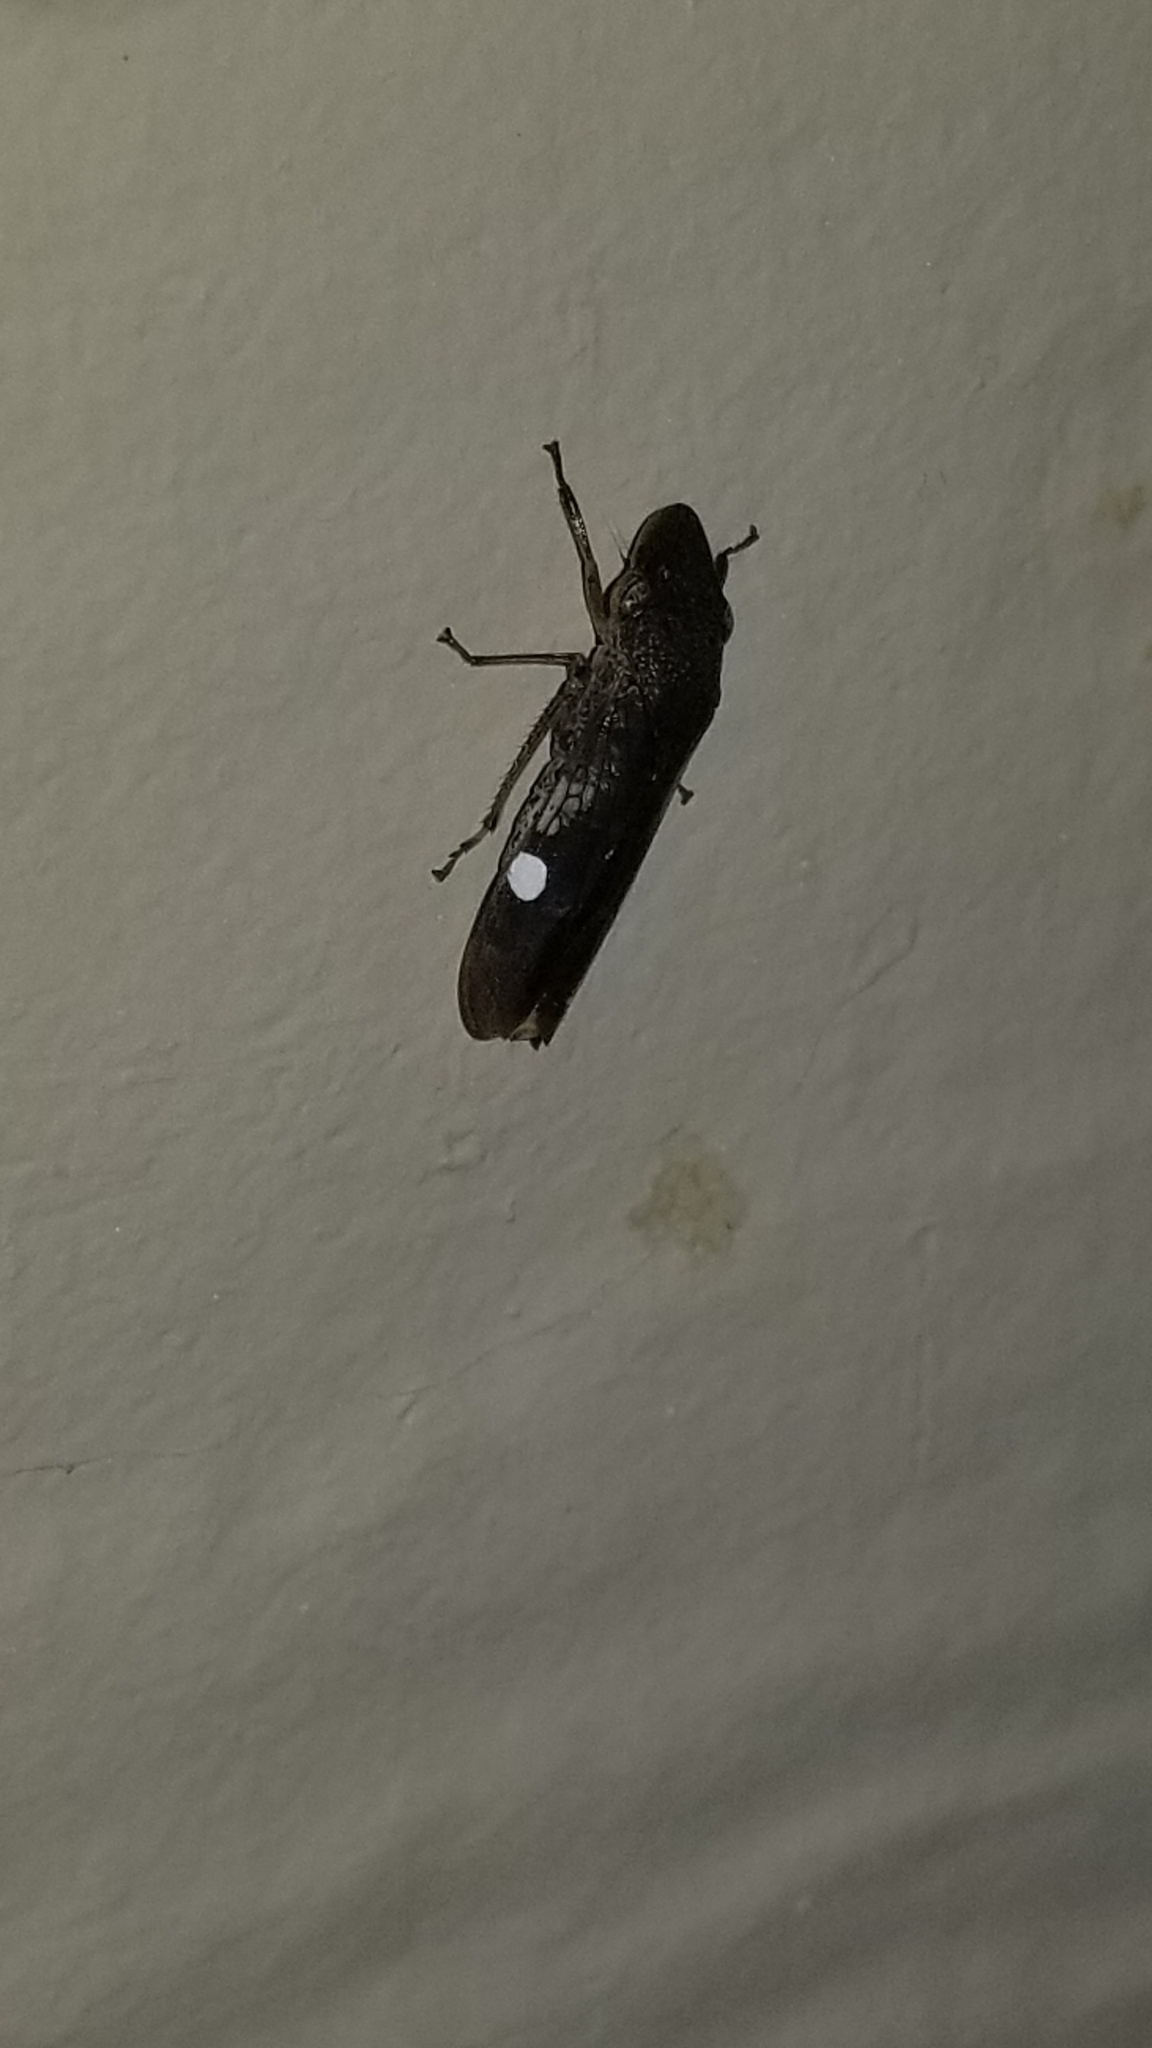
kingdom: Animalia
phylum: Arthropoda
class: Insecta
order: Hemiptera
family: Cicadellidae
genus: Homalodisca
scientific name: Homalodisca vitripennis
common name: Glassy-winged sharpshooter
